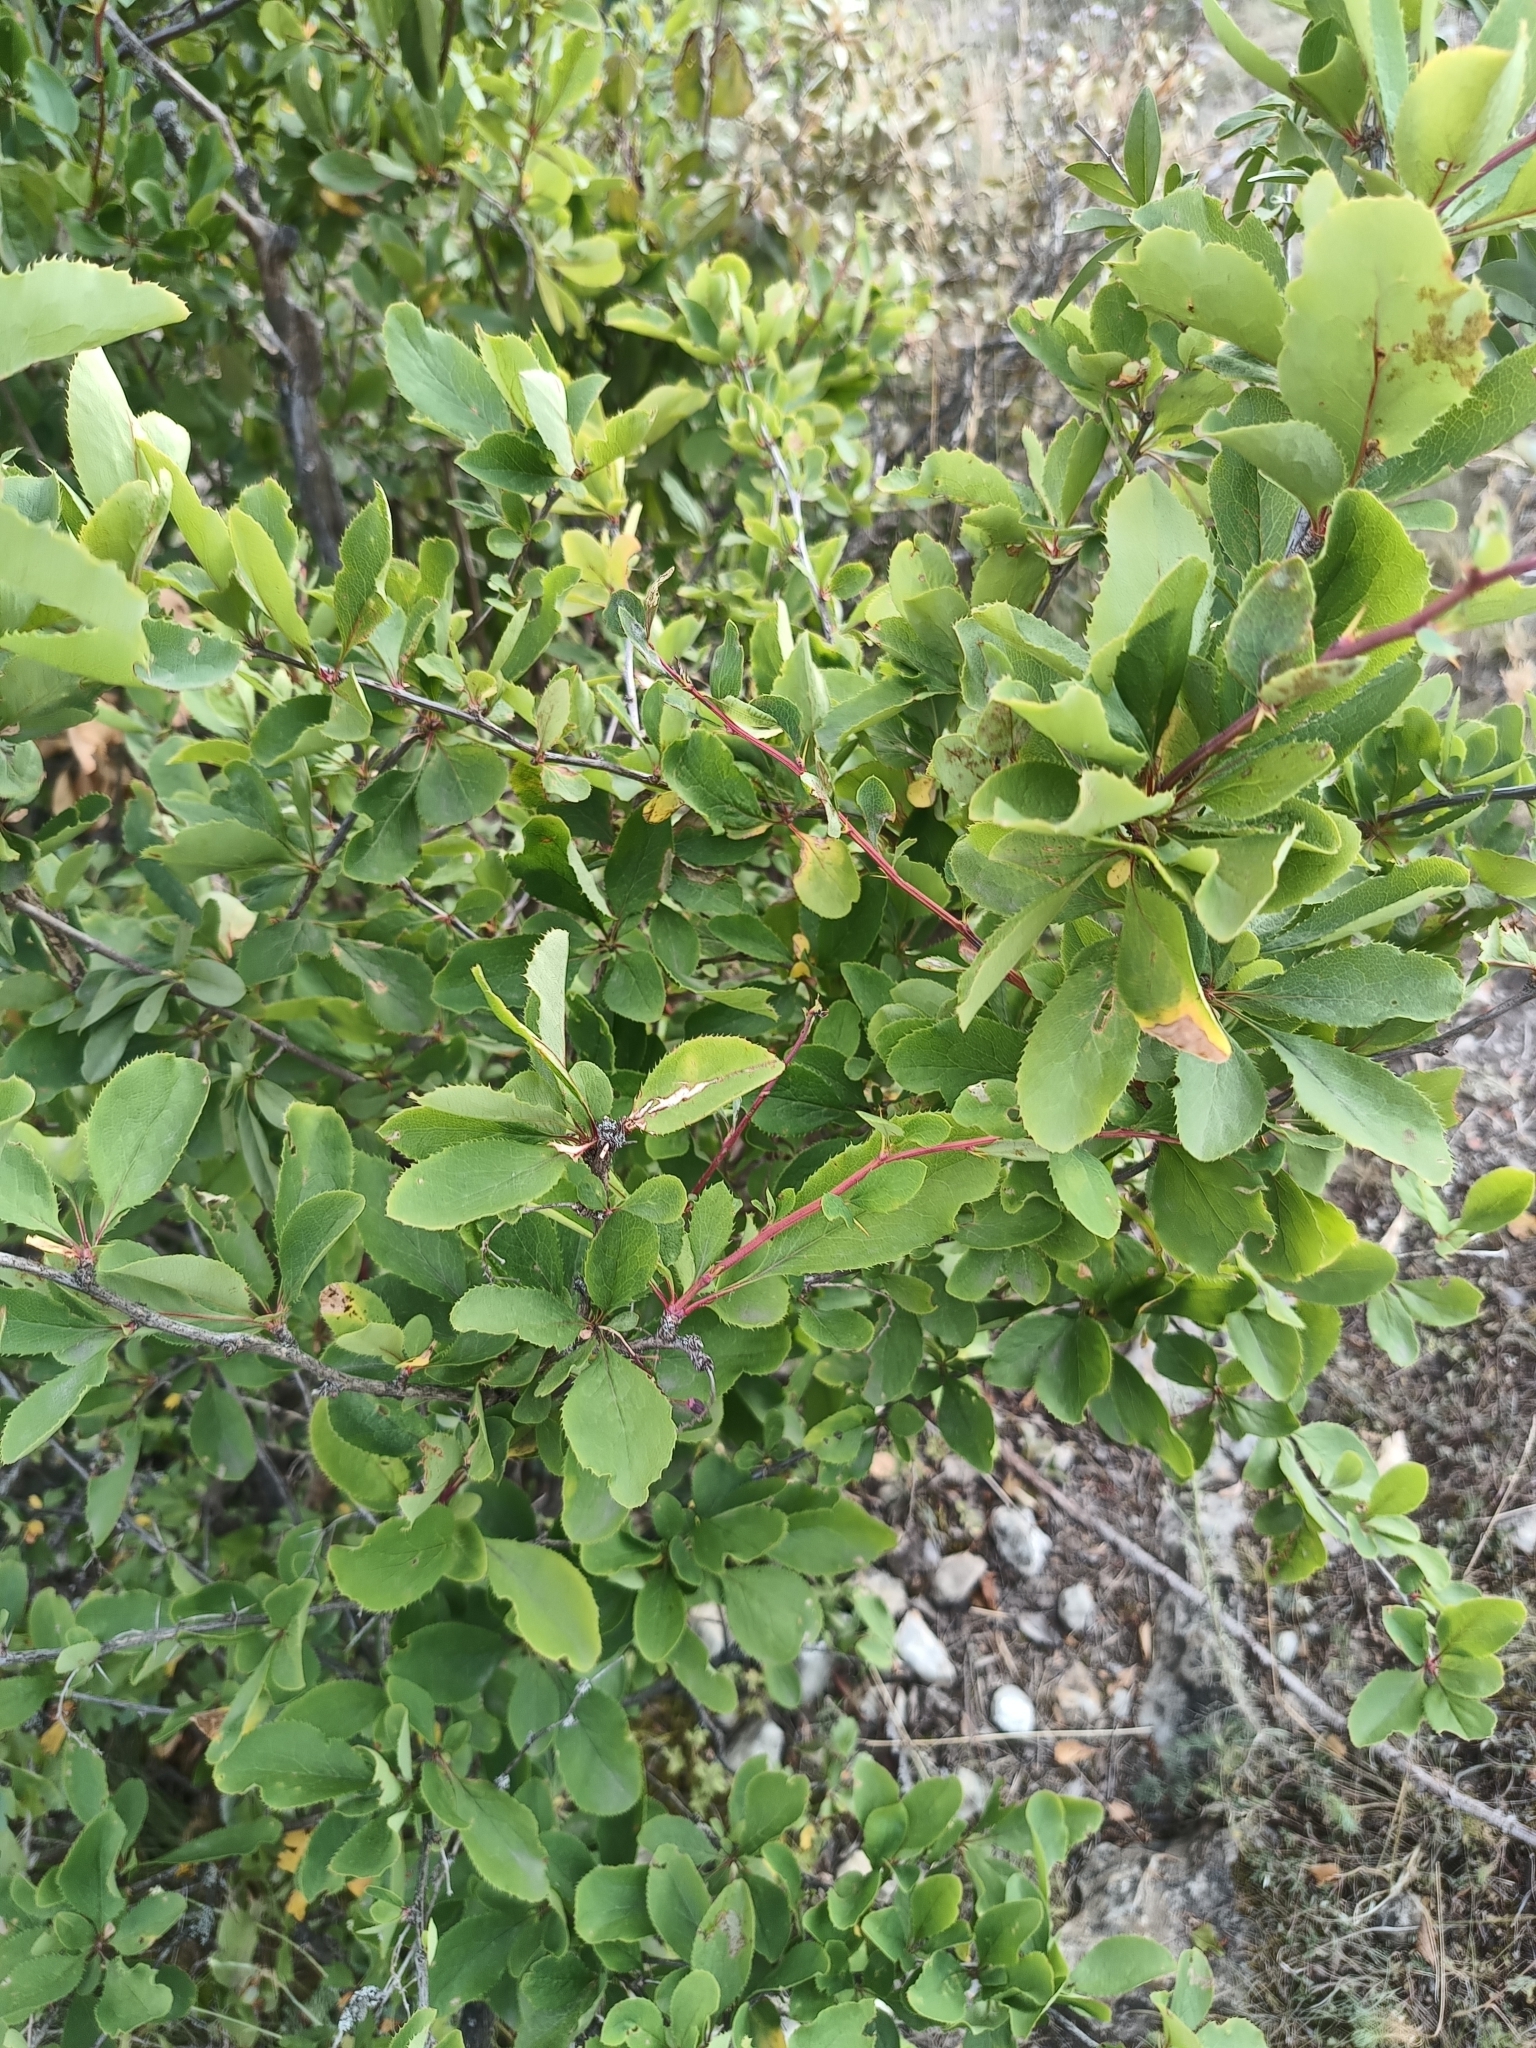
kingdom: Plantae
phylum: Tracheophyta
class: Magnoliopsida
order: Ranunculales
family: Berberidaceae
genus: Berberis
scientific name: Berberis vulgaris
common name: Barberry
